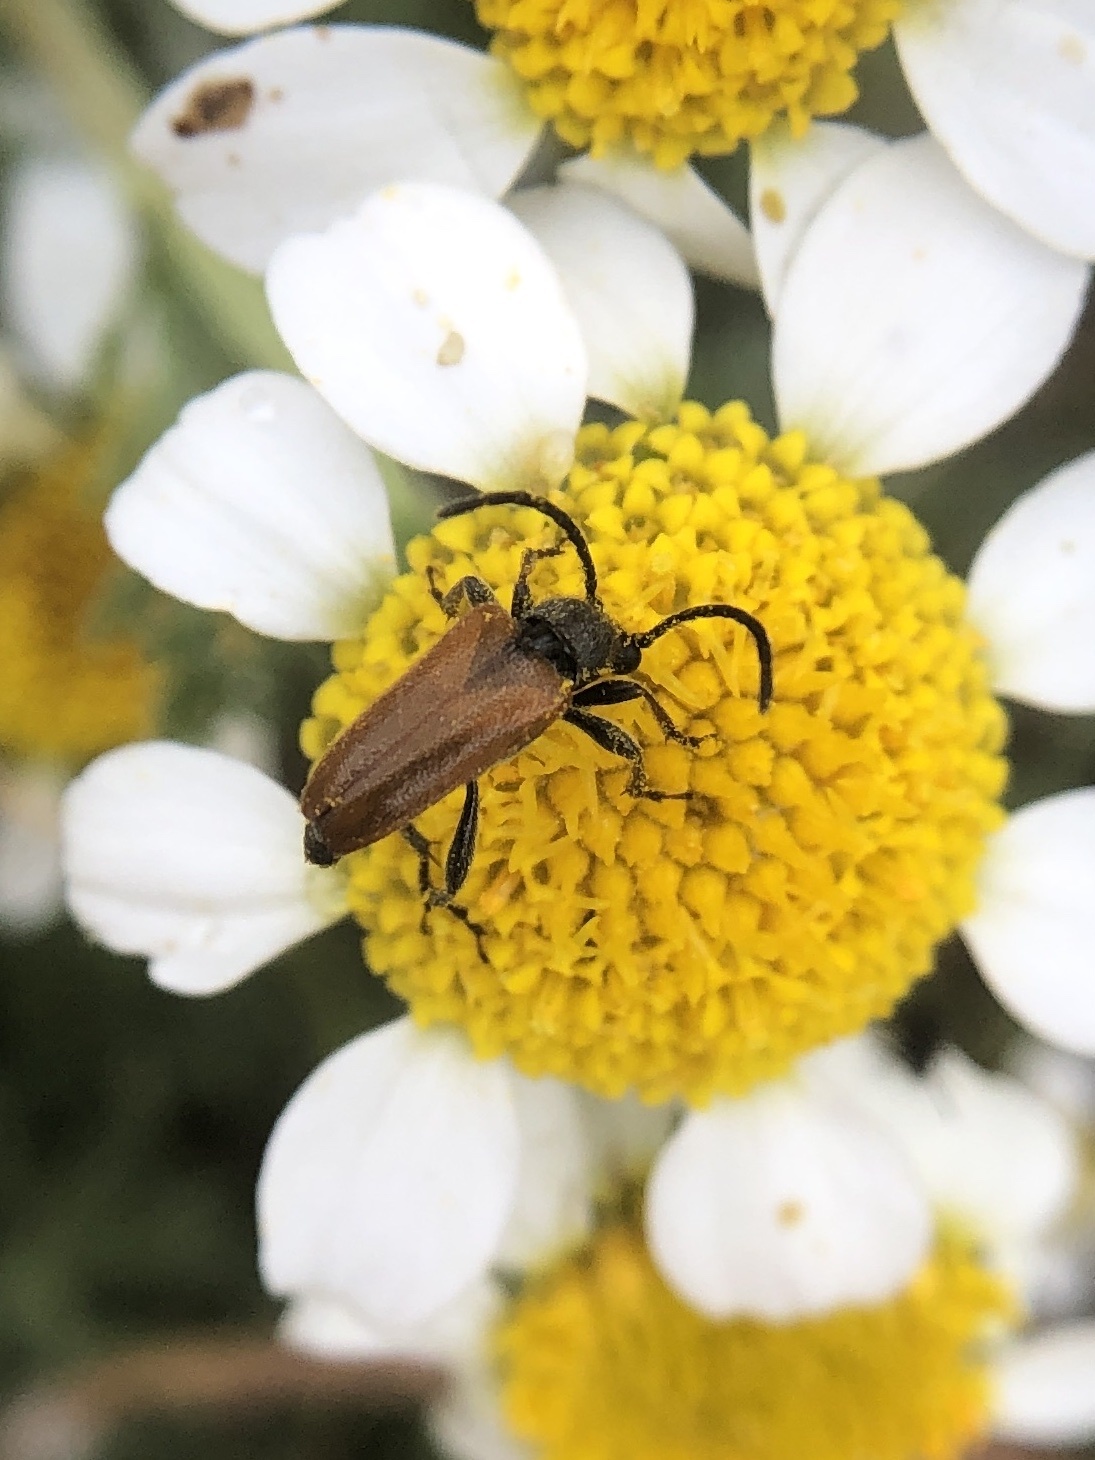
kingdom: Animalia
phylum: Arthropoda
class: Insecta
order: Coleoptera
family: Cerambycidae
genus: Pseudovadonia
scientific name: Pseudovadonia livida
